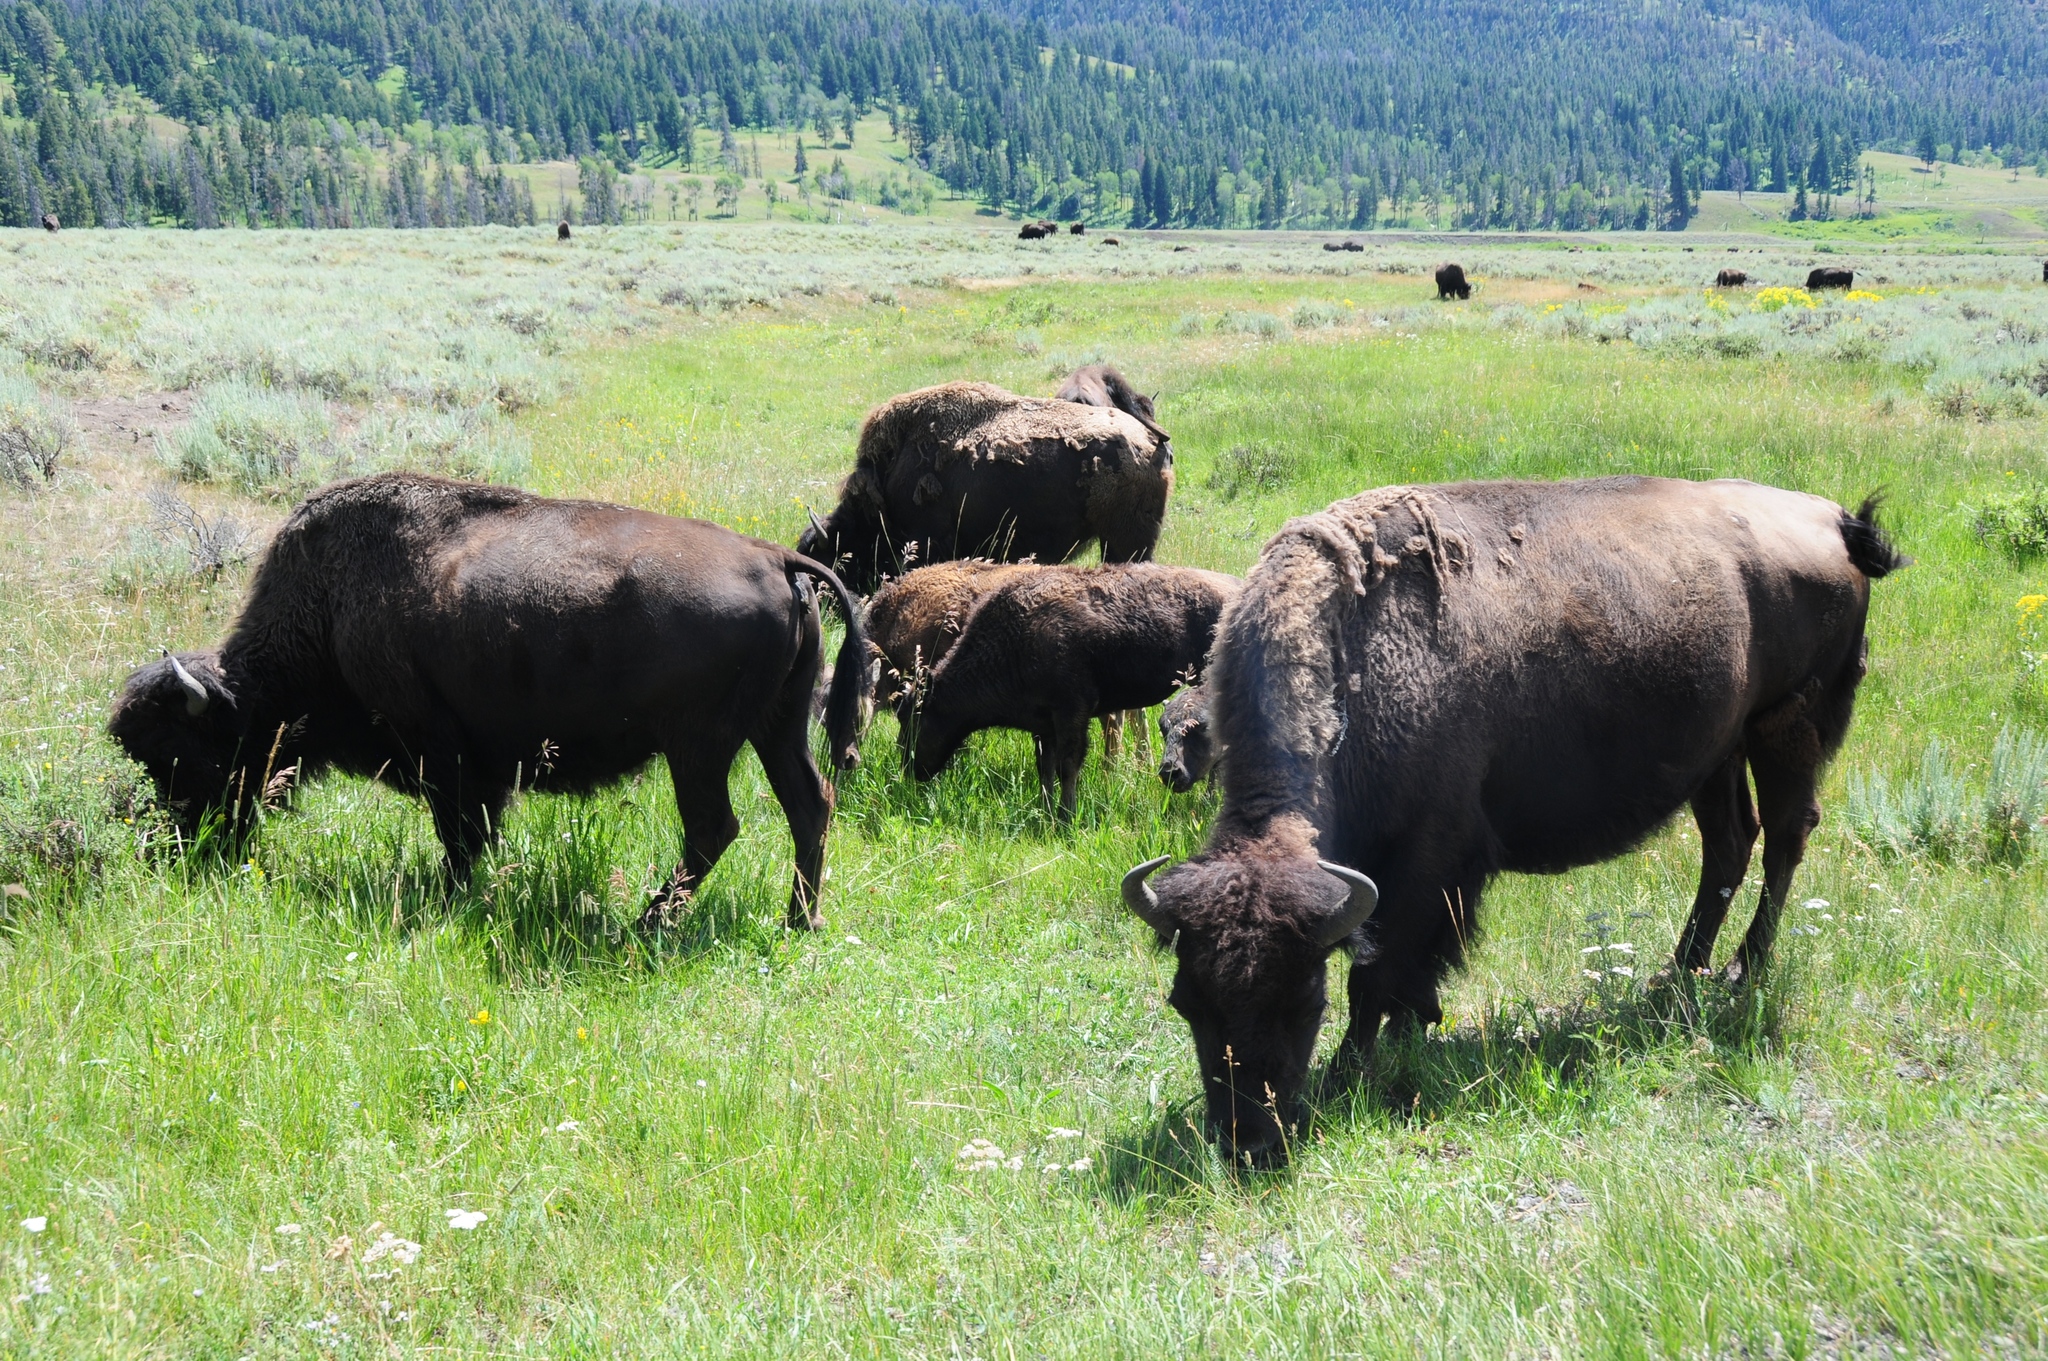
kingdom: Animalia
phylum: Chordata
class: Mammalia
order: Artiodactyla
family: Bovidae
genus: Bison
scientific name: Bison bison
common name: American bison
